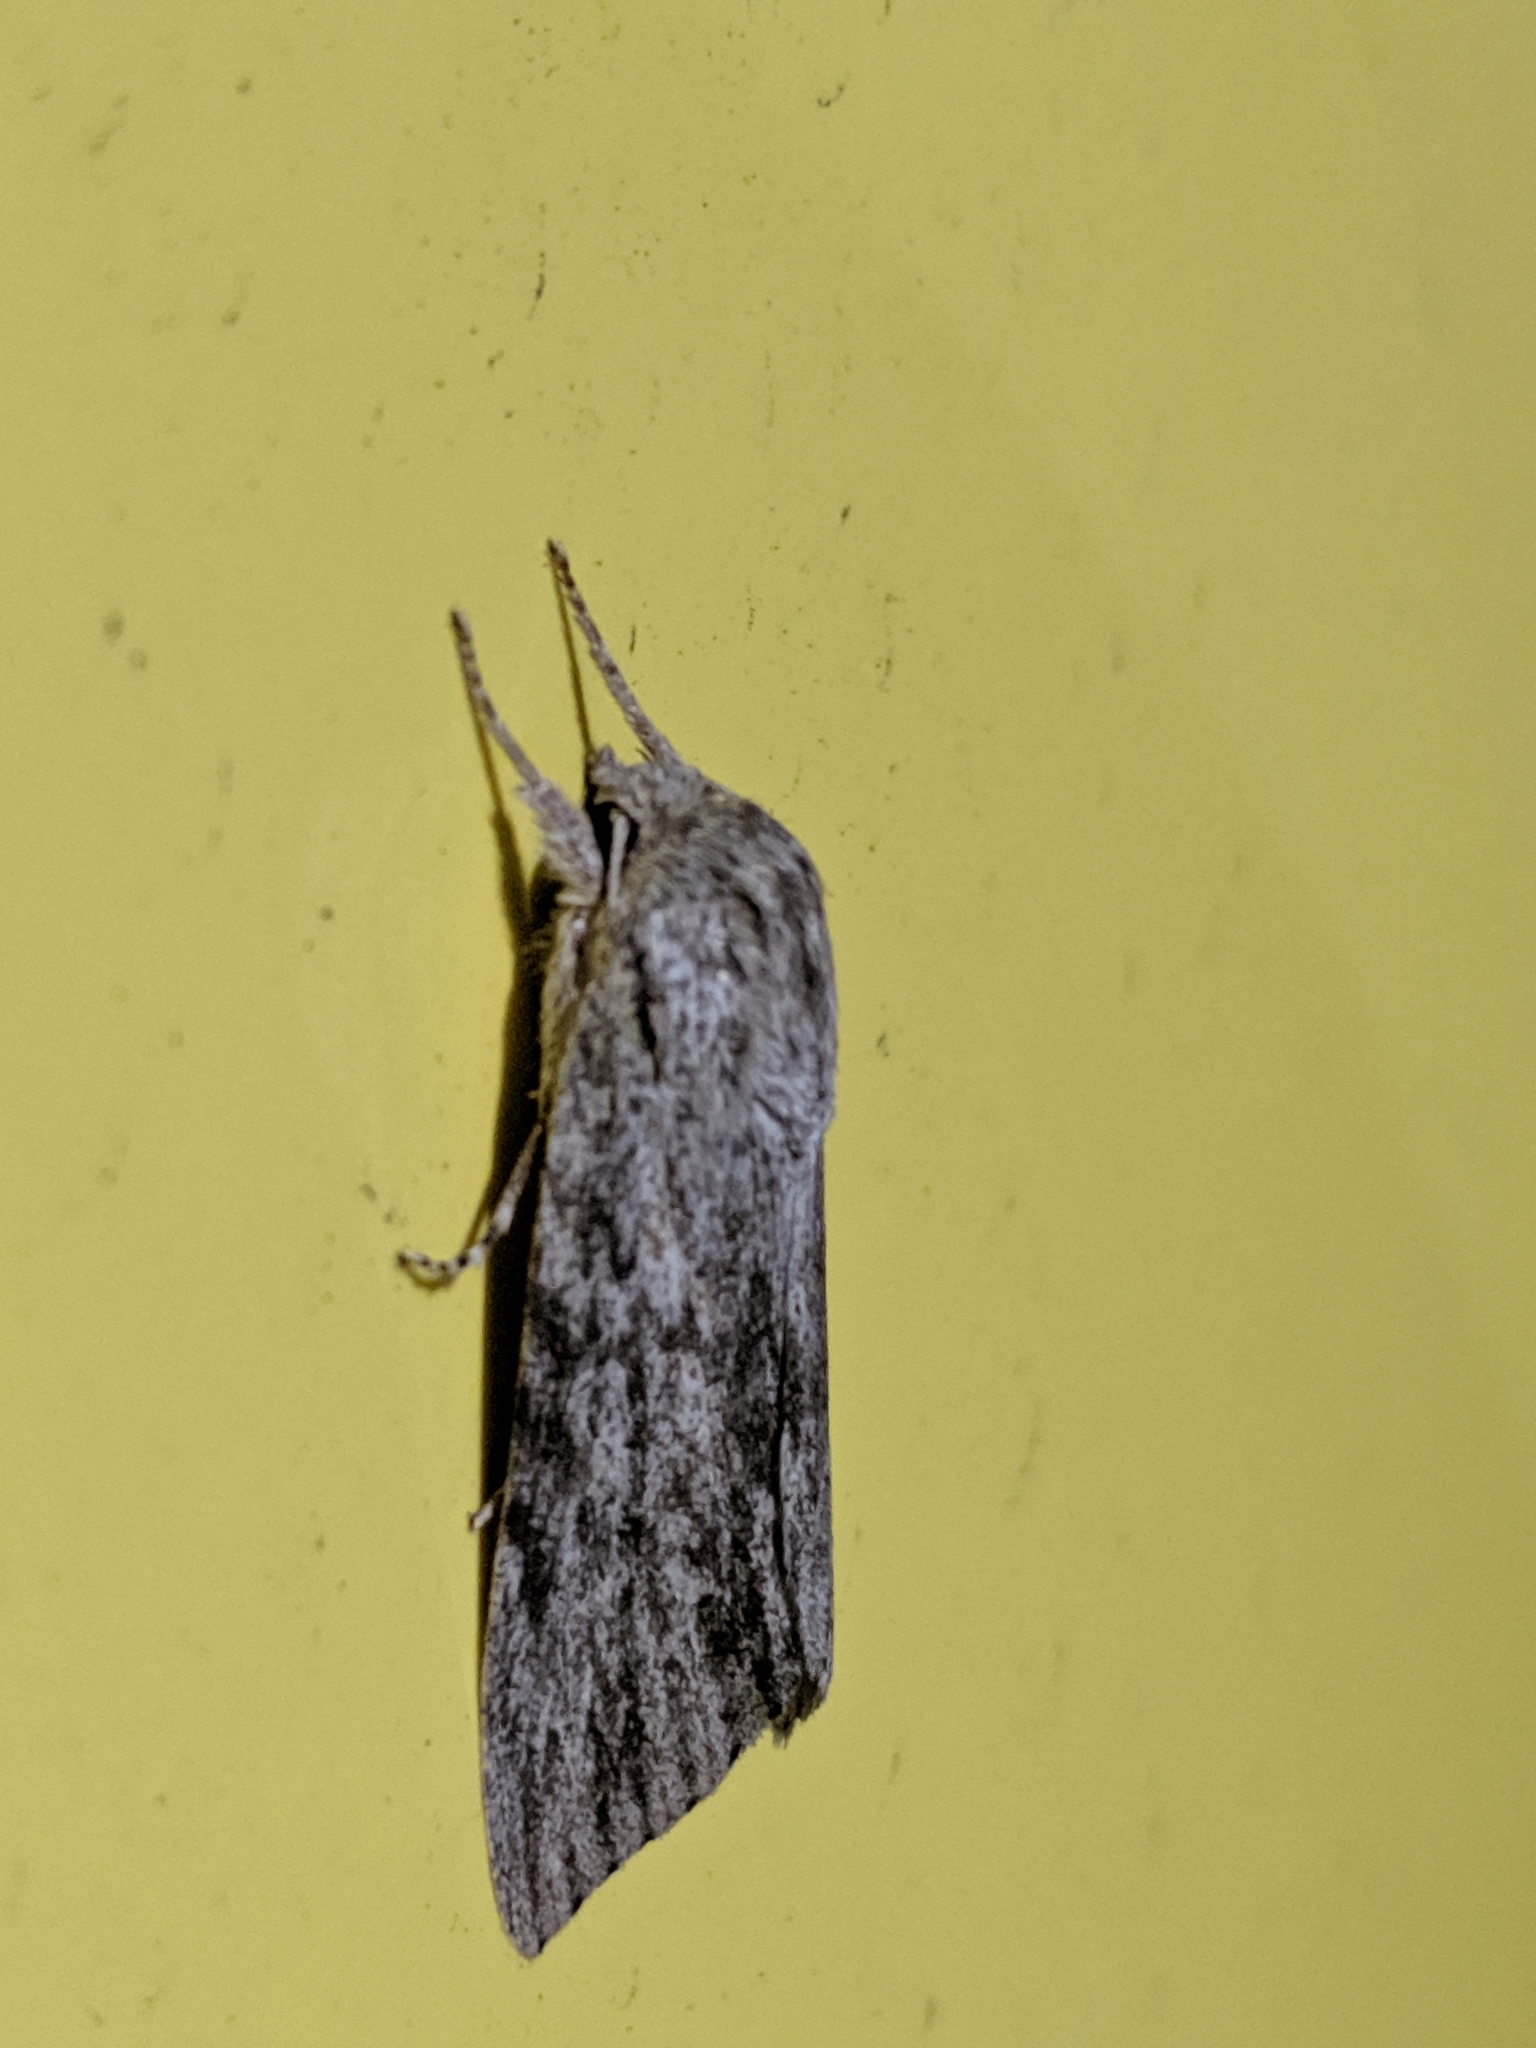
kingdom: Animalia
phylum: Arthropoda
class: Insecta
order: Lepidoptera
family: Noctuidae
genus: Acronicta
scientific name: Acronicta oblinita
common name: Smeared dagger
